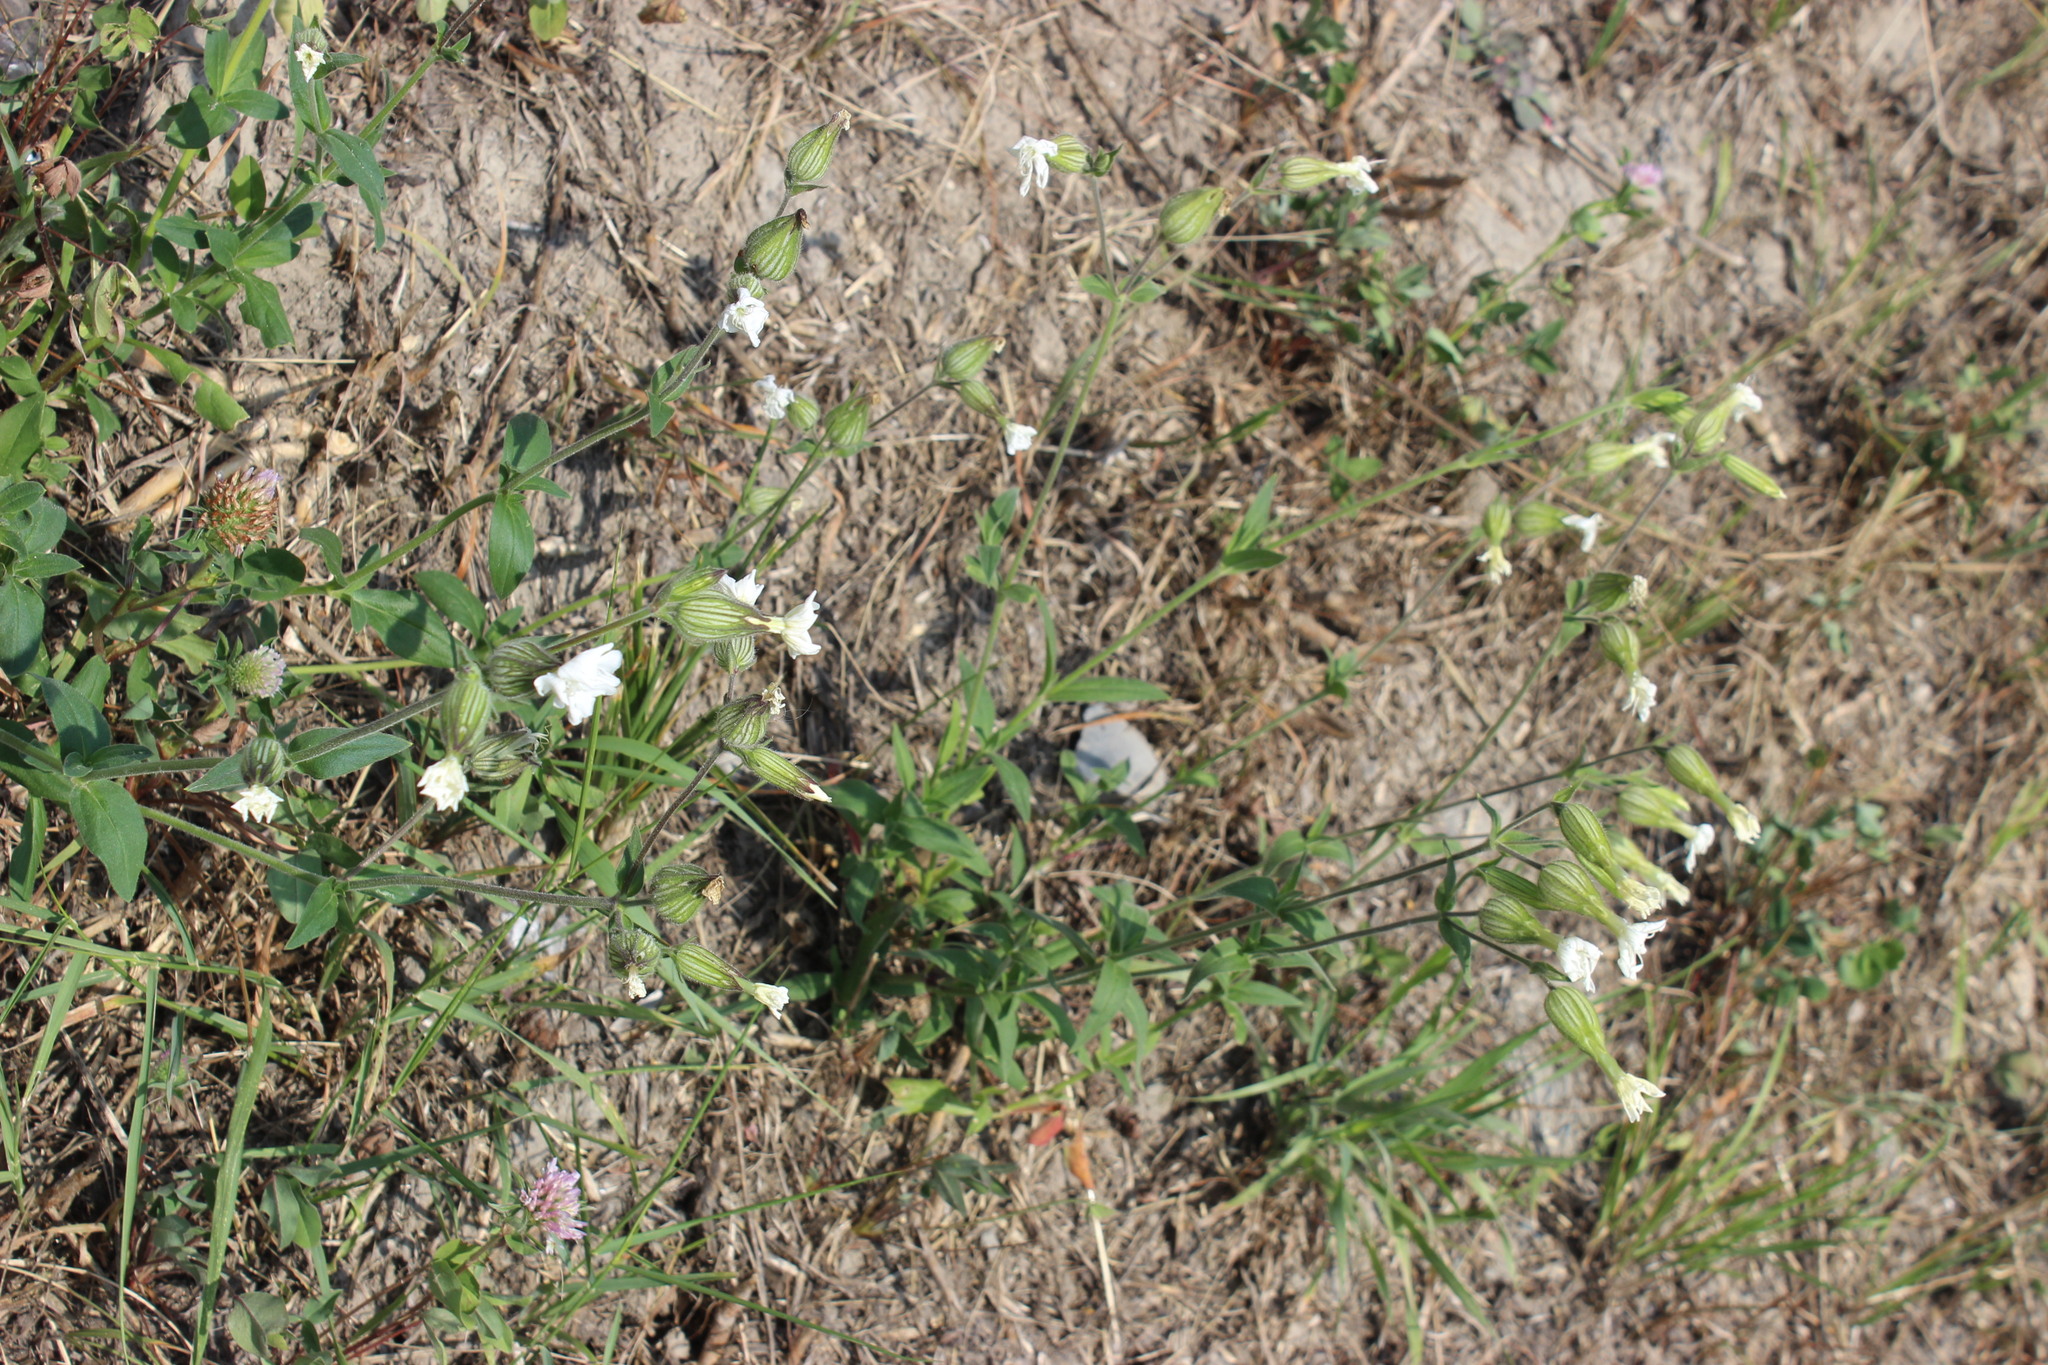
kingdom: Plantae
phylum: Tracheophyta
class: Magnoliopsida
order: Caryophyllales
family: Caryophyllaceae
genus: Silene
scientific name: Silene latifolia
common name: White campion
